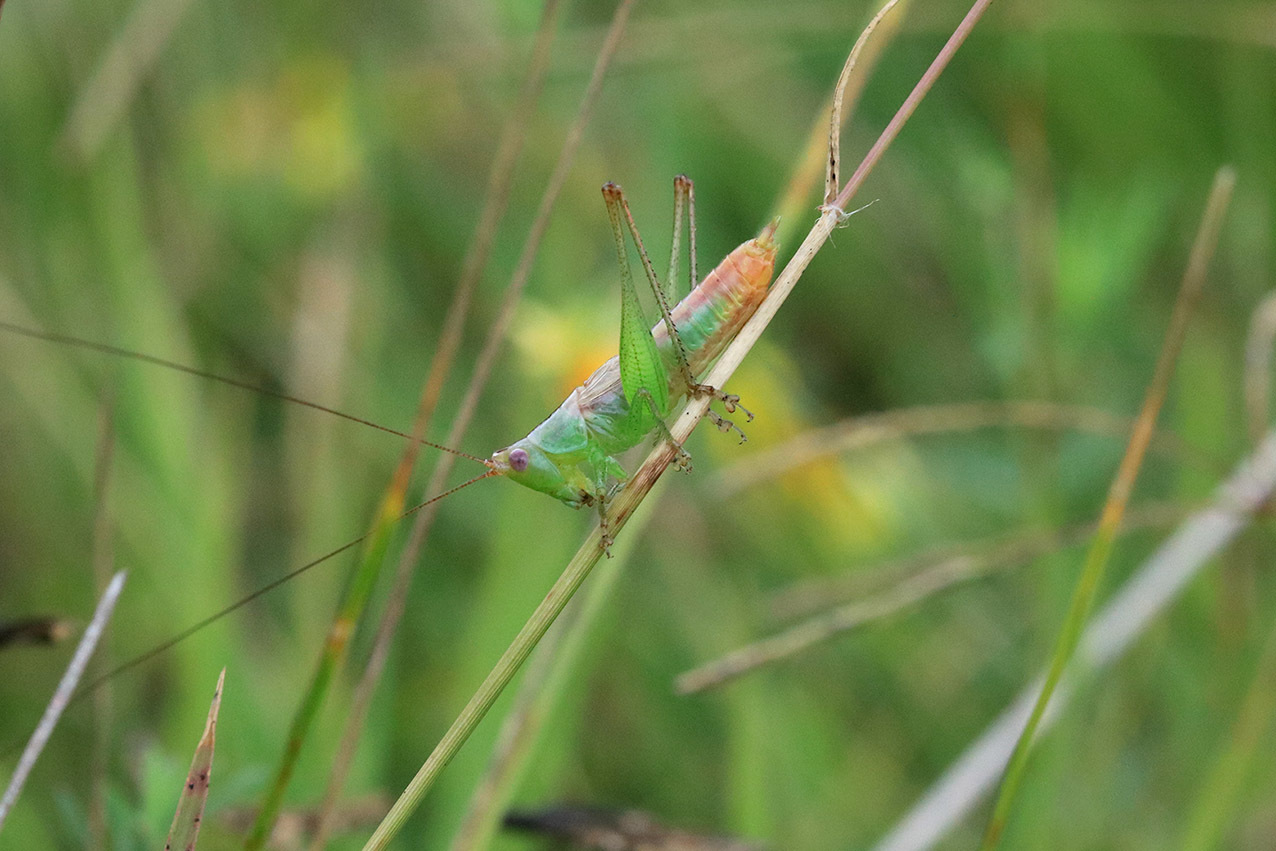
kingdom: Animalia
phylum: Arthropoda
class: Insecta
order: Orthoptera
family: Tettigoniidae
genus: Conocephalus
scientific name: Conocephalus doryphorus
